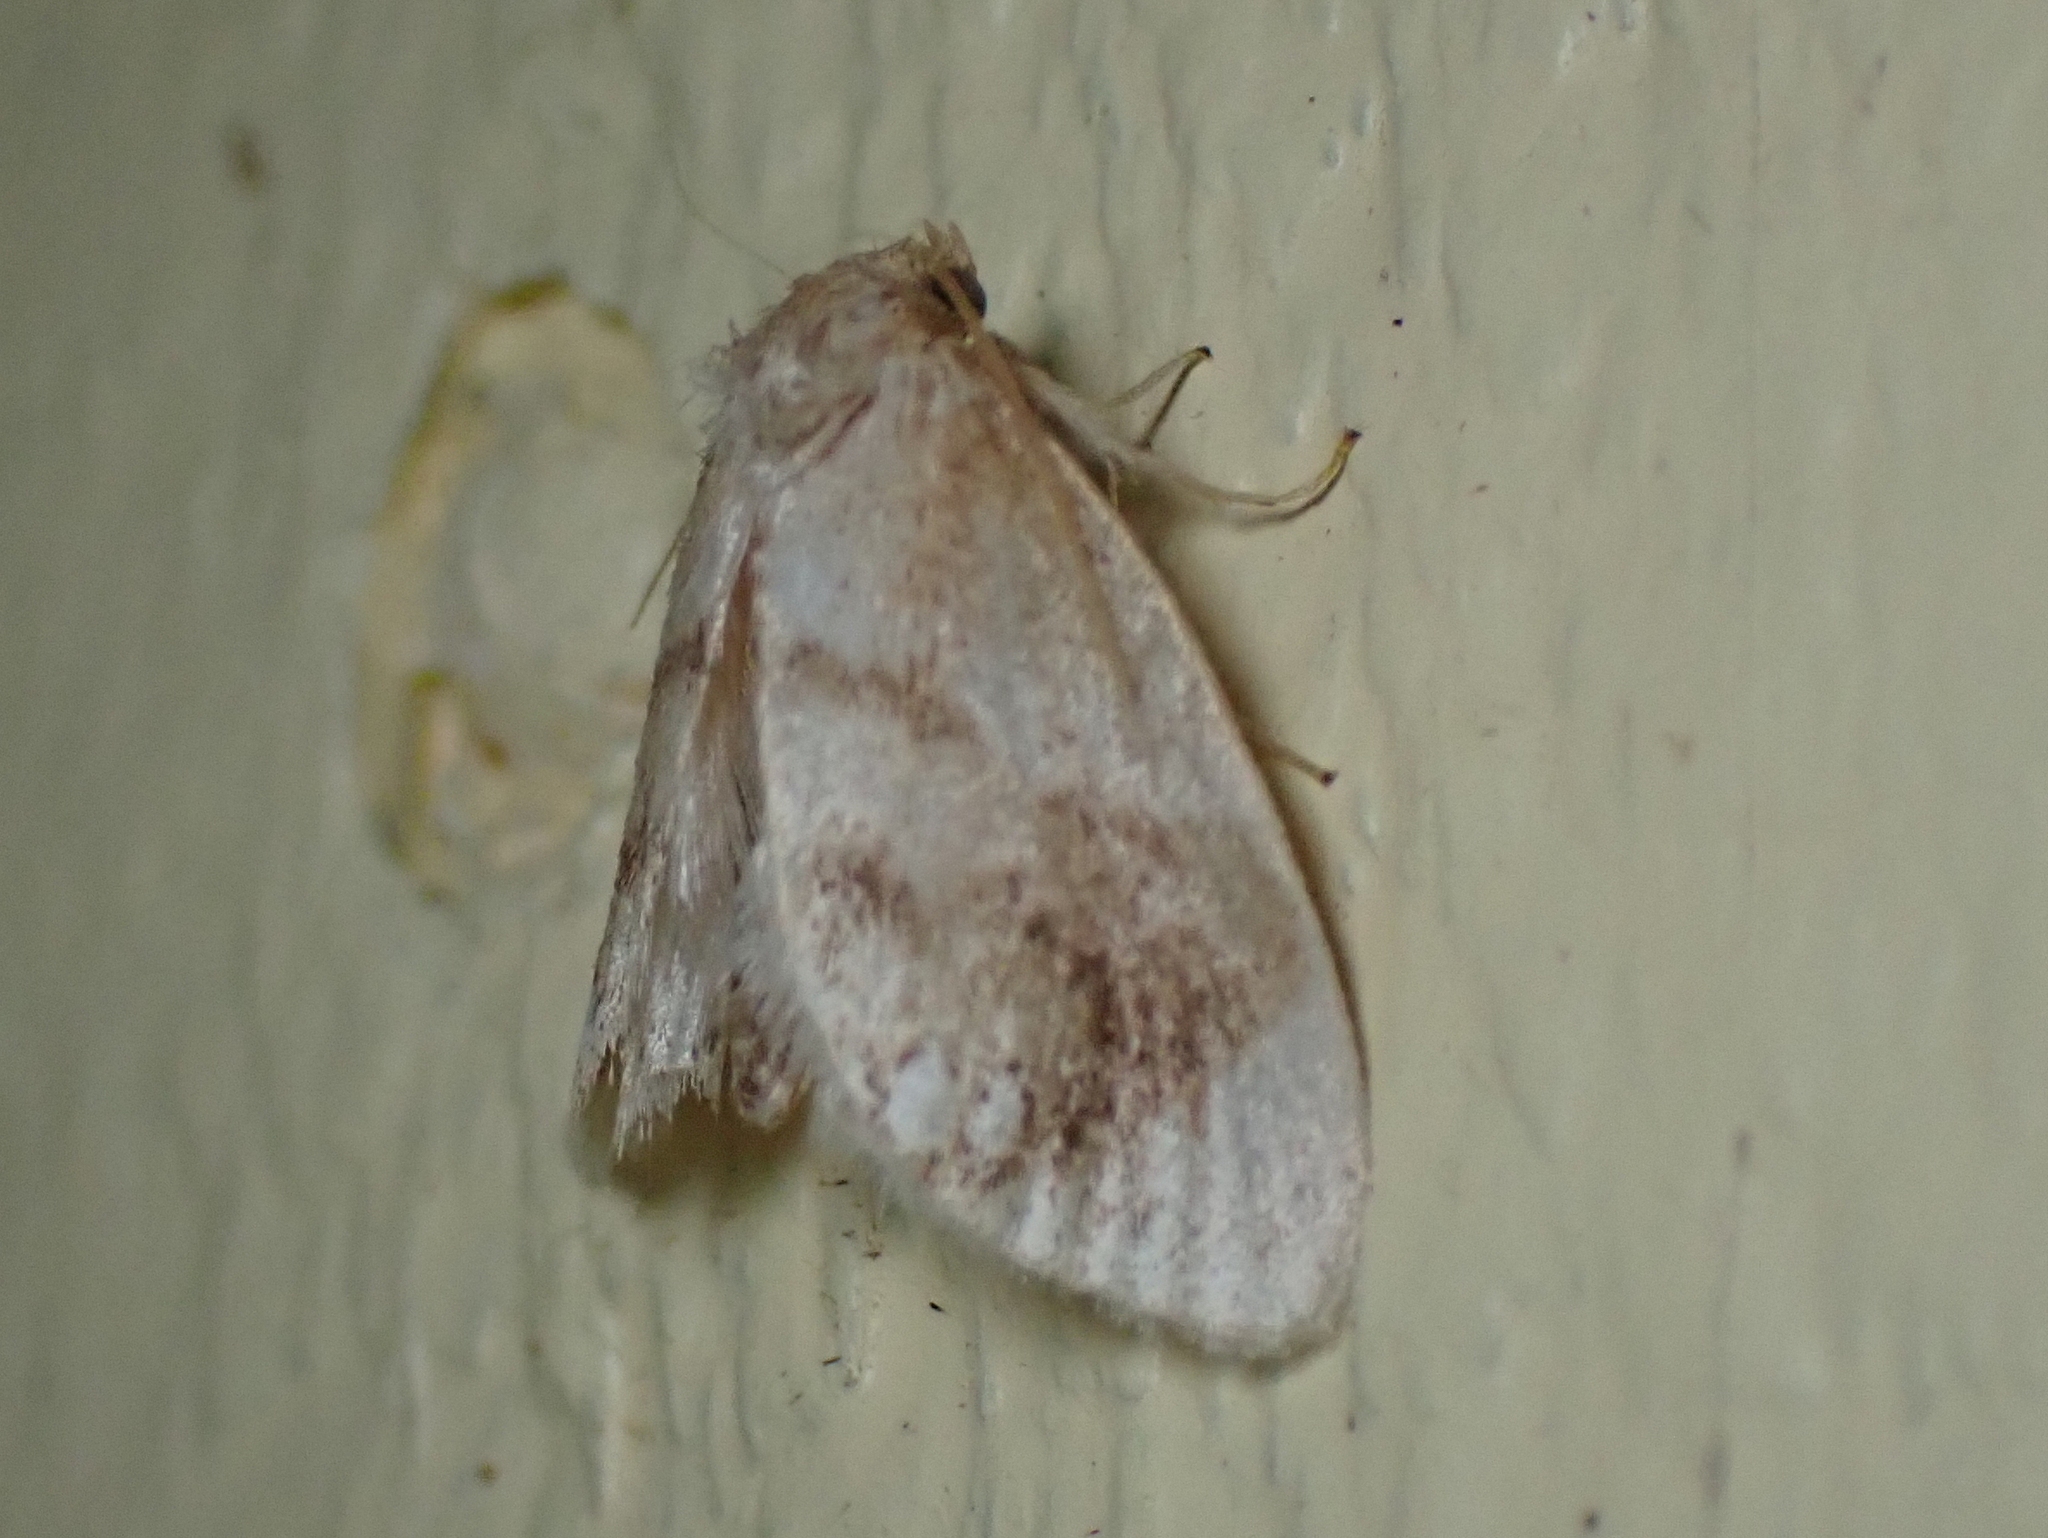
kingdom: Animalia
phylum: Arthropoda
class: Insecta
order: Lepidoptera
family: Limacodidae
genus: Packardia
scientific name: Packardia geminata
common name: Jeweled tailed slug moth
